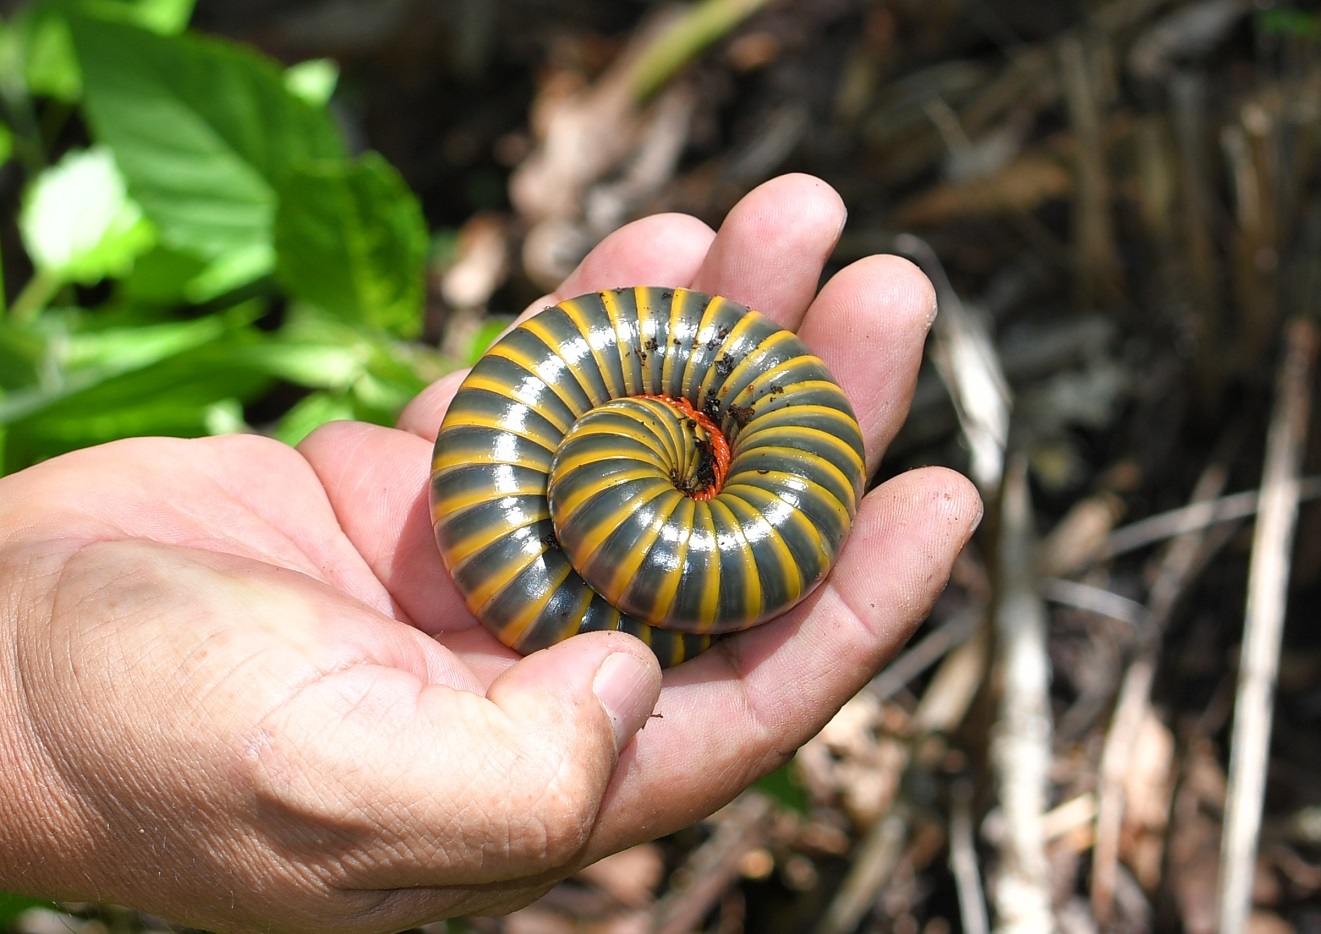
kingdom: Animalia
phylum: Arthropoda
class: Diplopoda
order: Spirobolida
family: Messicobolidae
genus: Messicobolus
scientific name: Messicobolus magnificus
